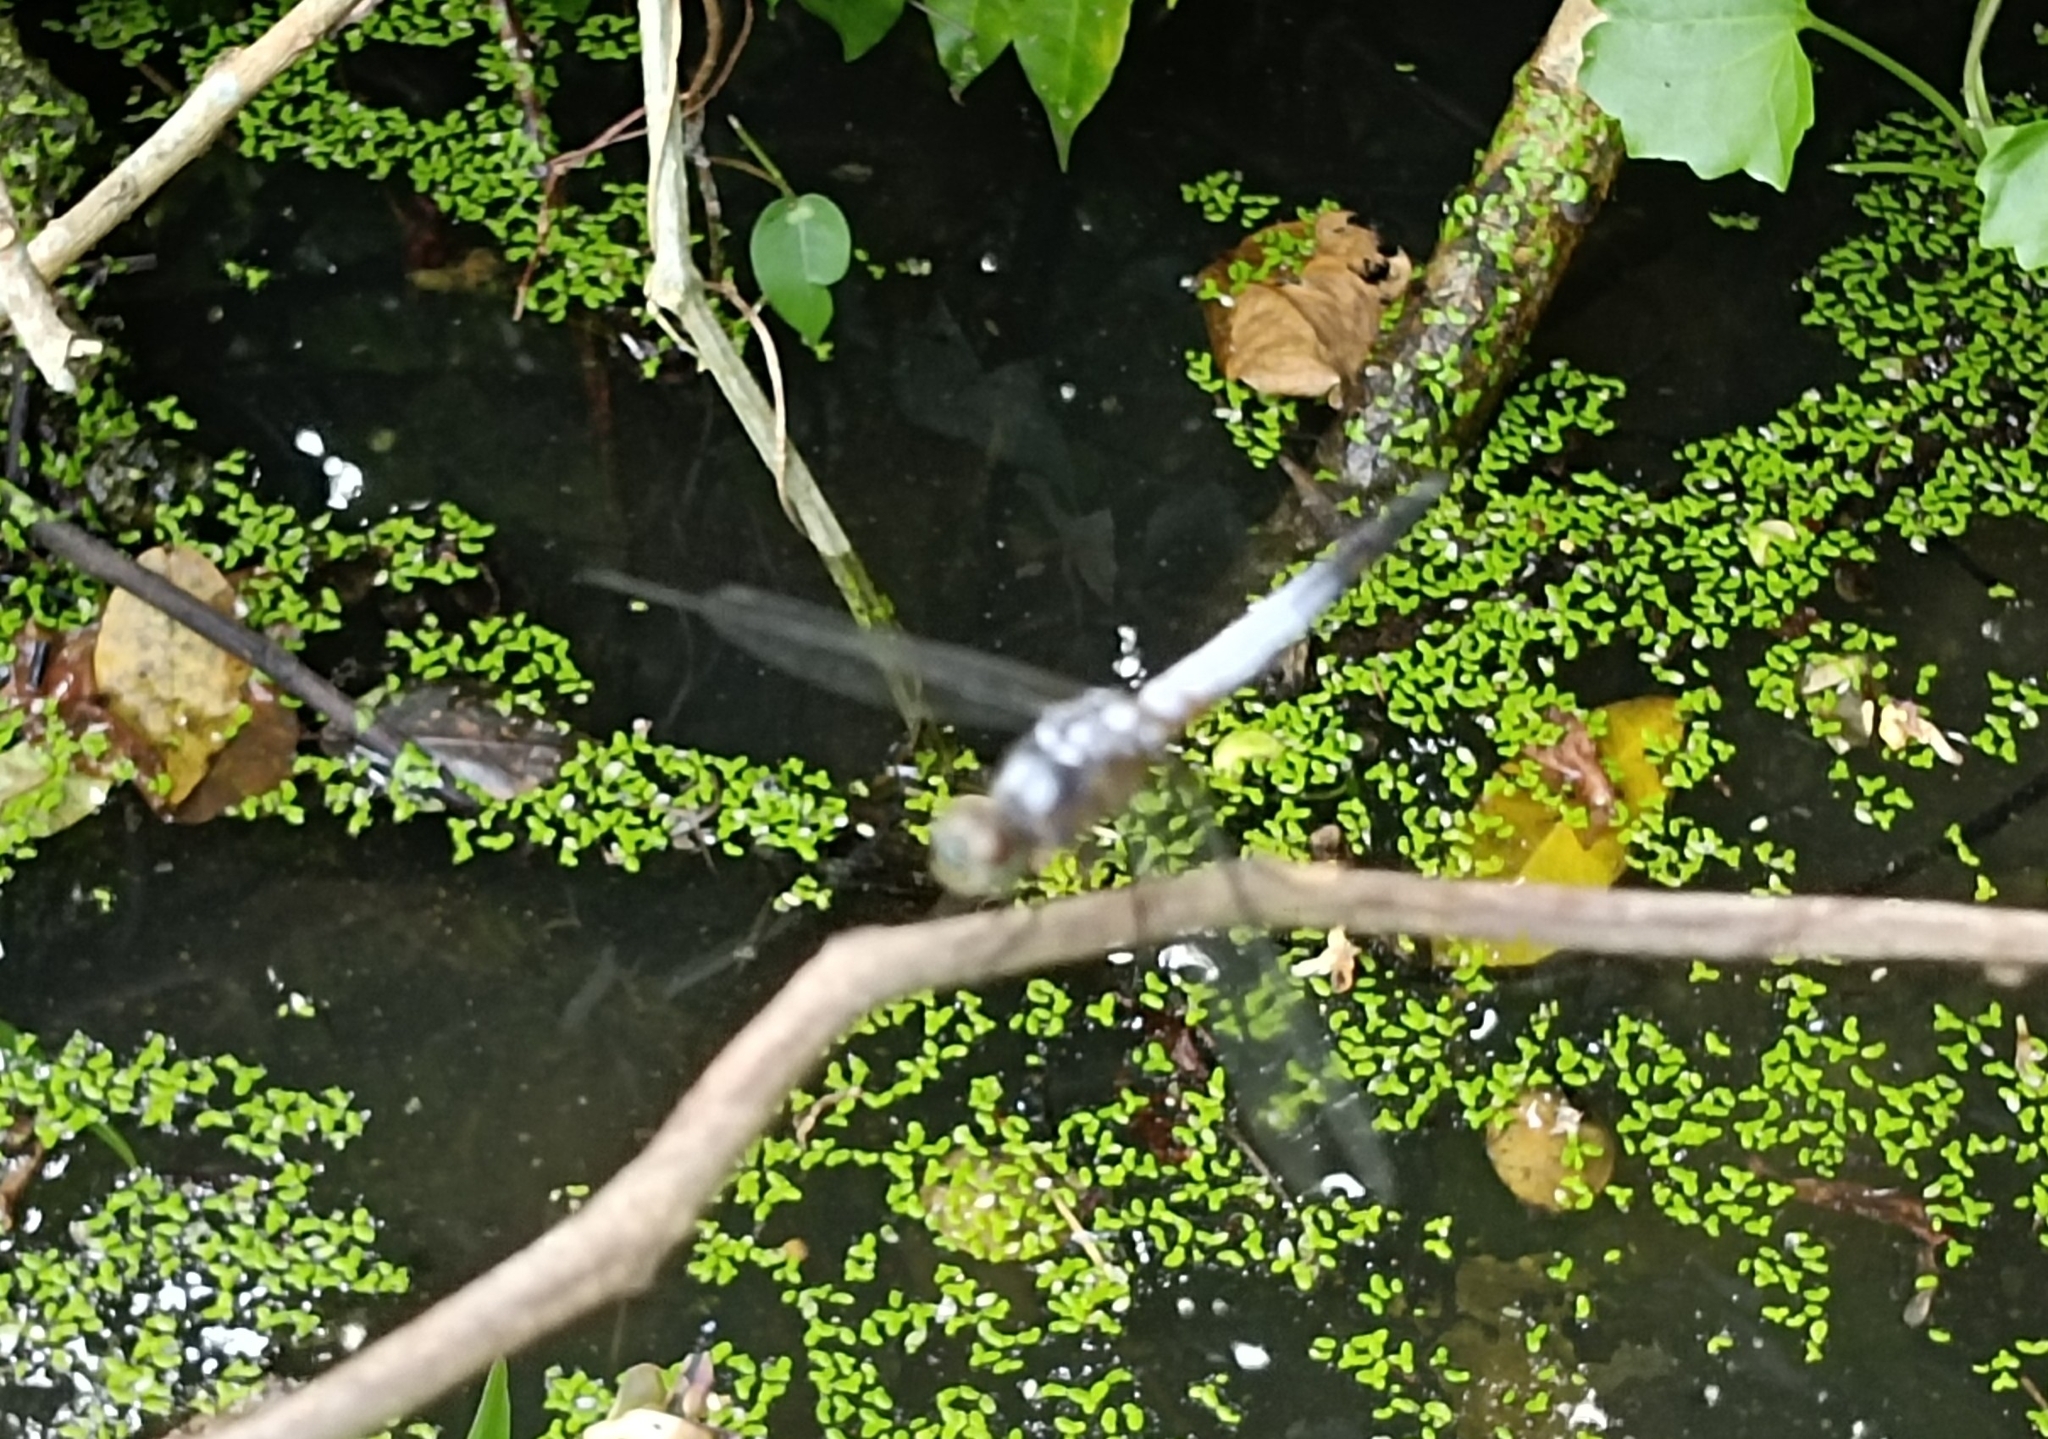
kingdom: Animalia
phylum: Arthropoda
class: Insecta
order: Odonata
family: Libellulidae
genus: Brachydiplax
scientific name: Brachydiplax chalybea
